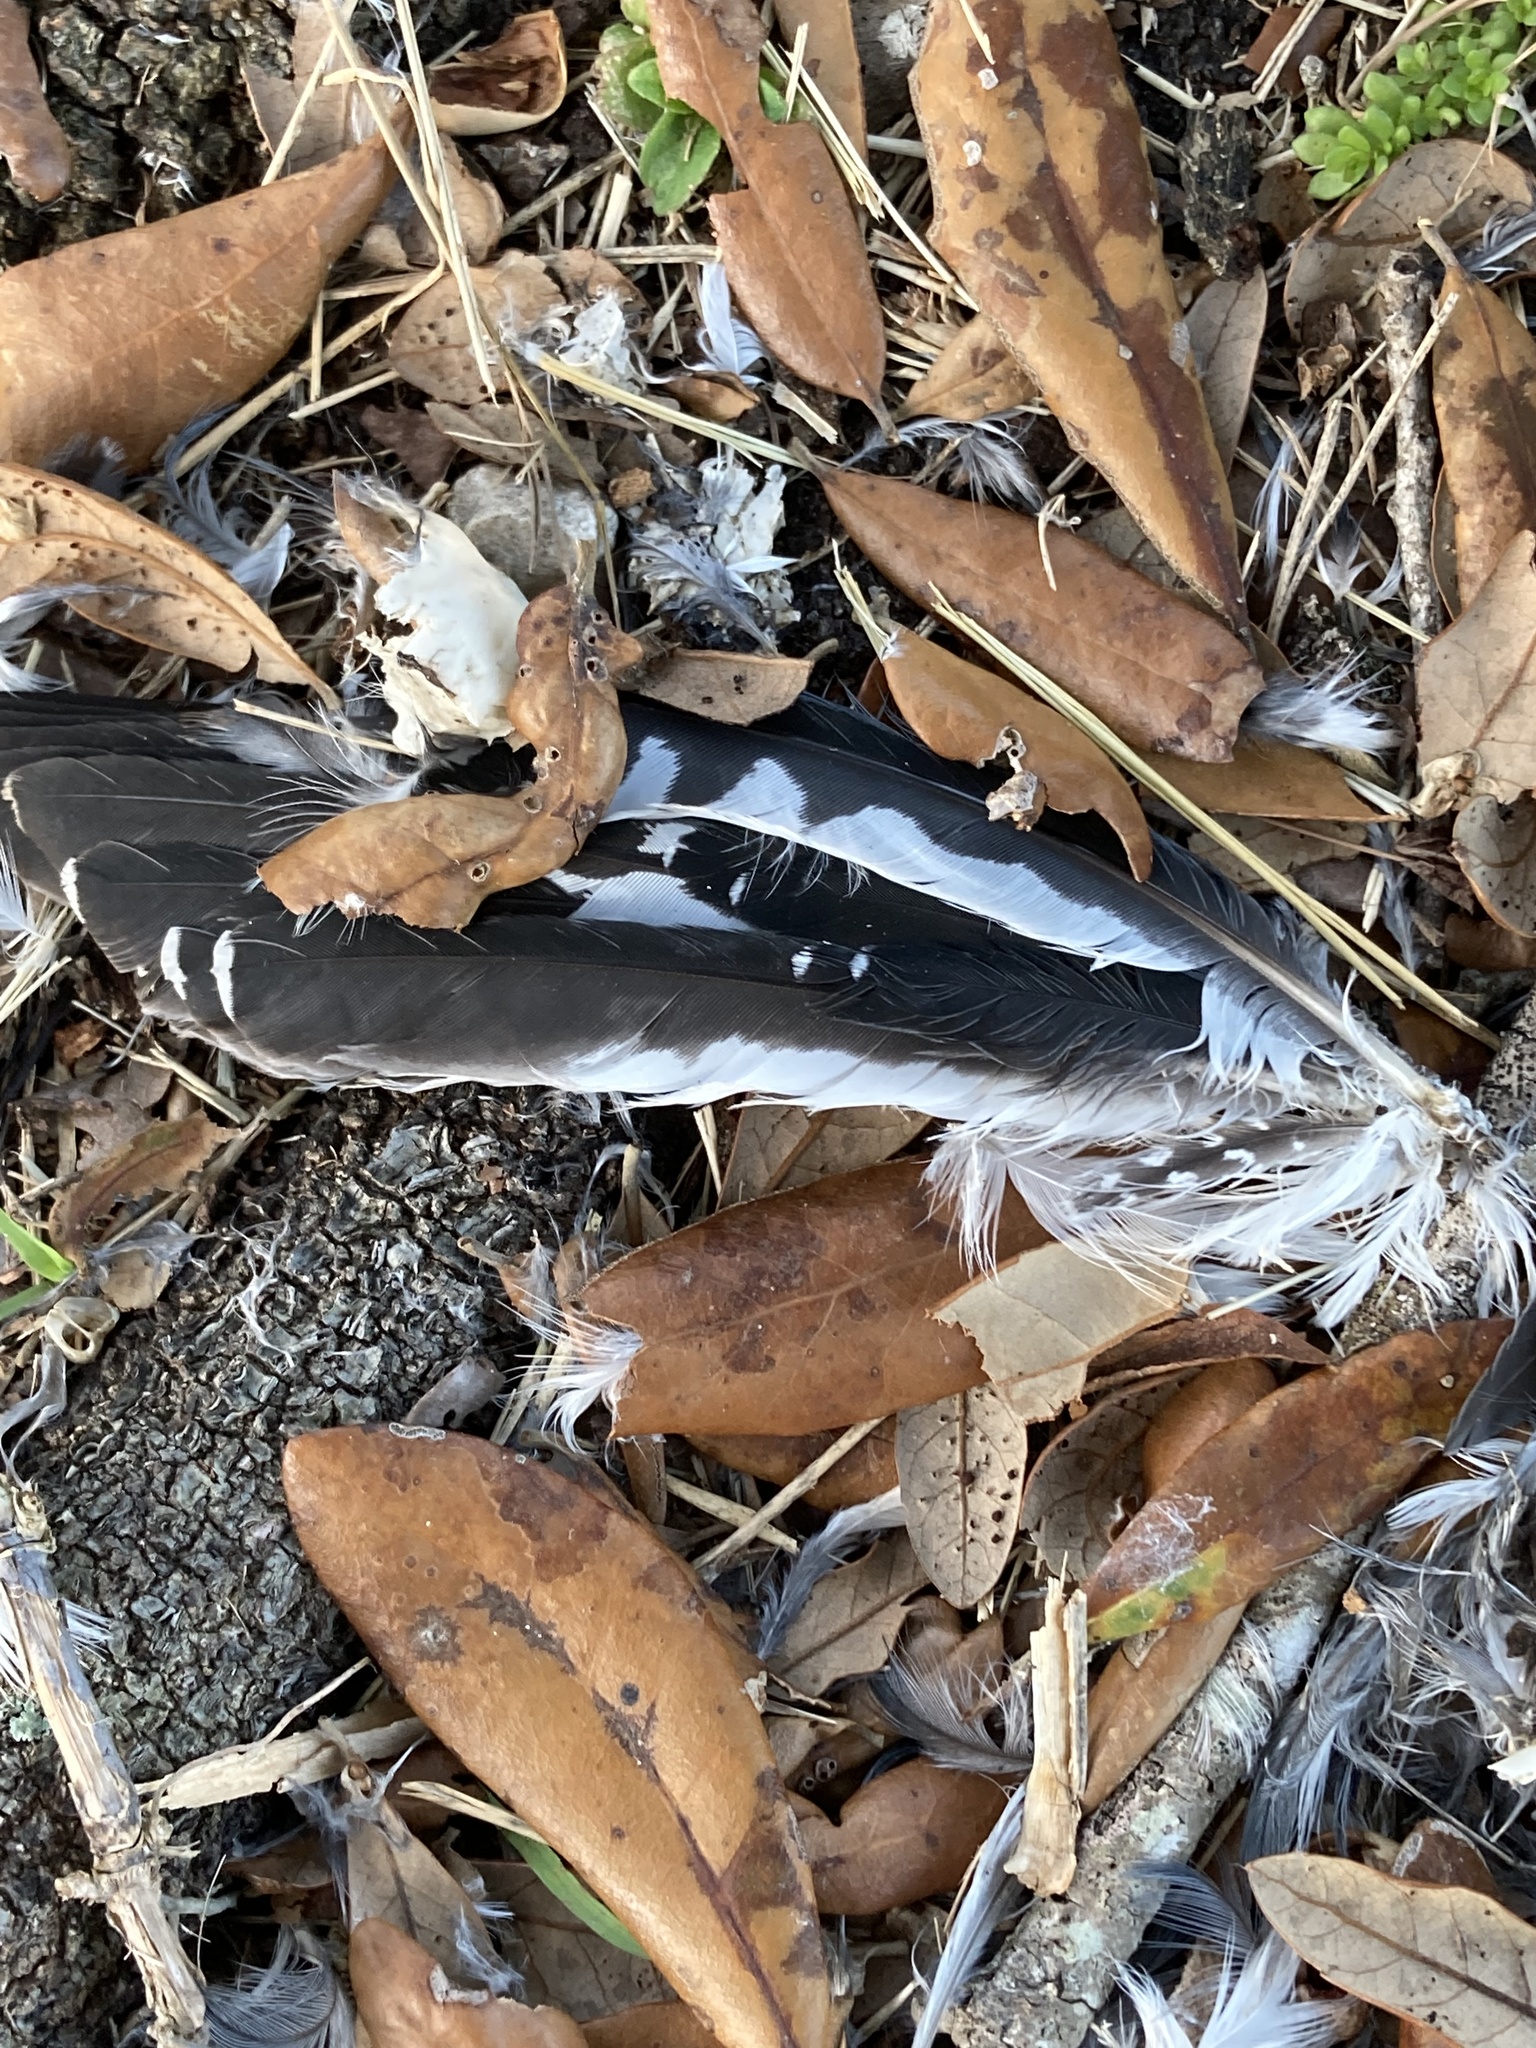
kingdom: Animalia
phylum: Chordata
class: Aves
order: Coraciiformes
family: Alcedinidae
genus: Megaceryle
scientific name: Megaceryle alcyon
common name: Belted kingfisher
